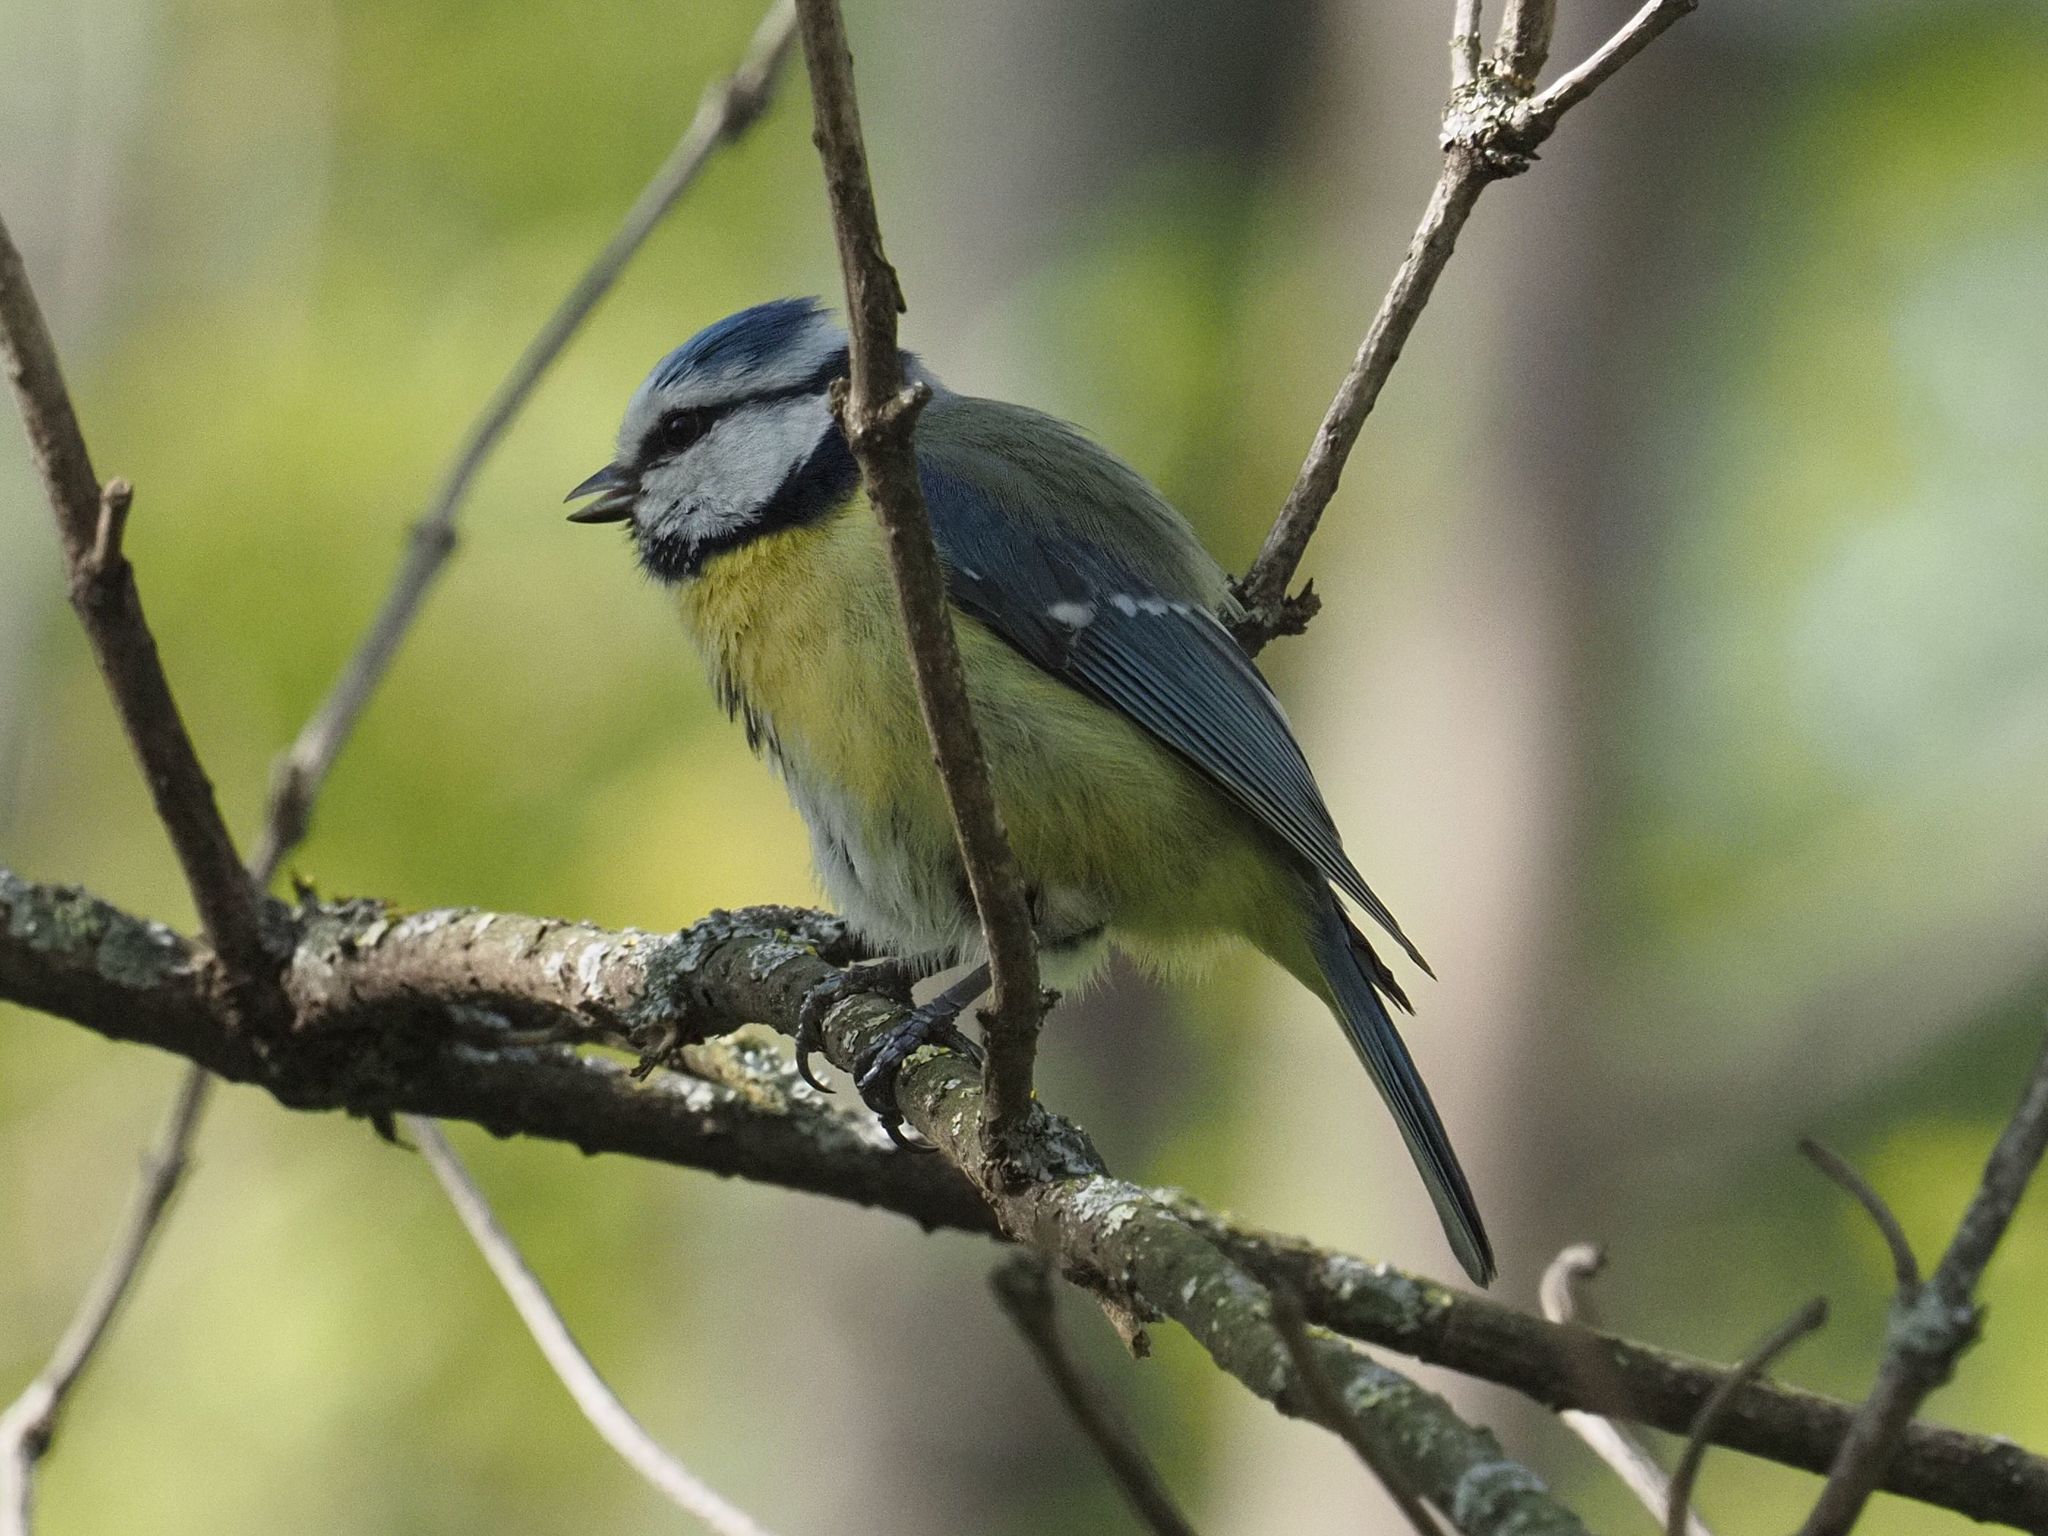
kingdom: Animalia
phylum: Chordata
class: Aves
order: Passeriformes
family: Paridae
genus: Cyanistes
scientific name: Cyanistes caeruleus
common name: Eurasian blue tit
